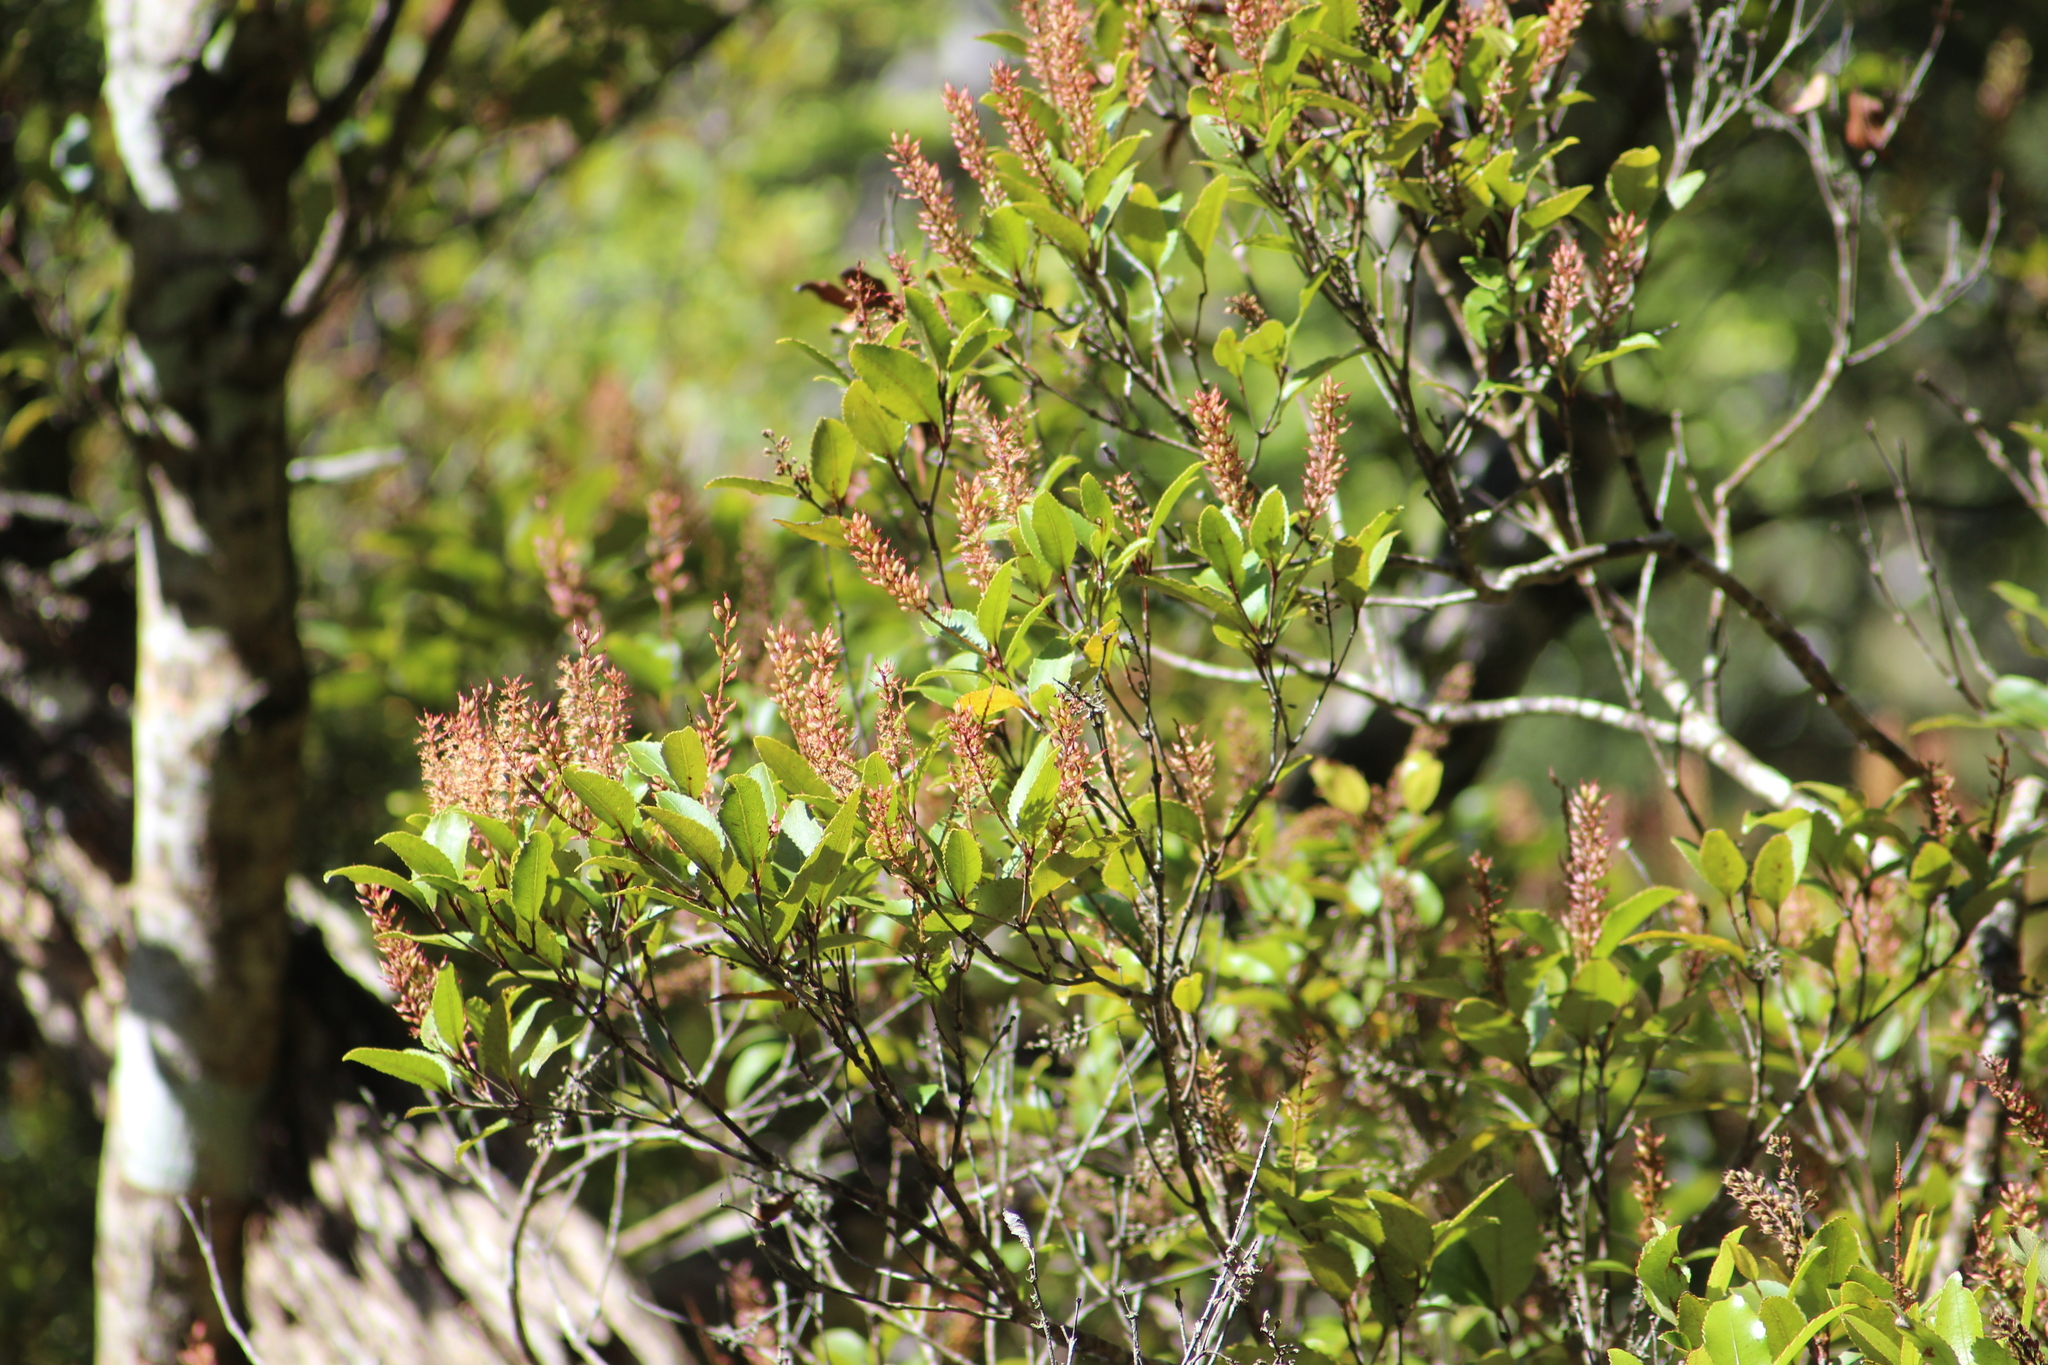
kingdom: Plantae
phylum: Tracheophyta
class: Magnoliopsida
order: Oxalidales
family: Cunoniaceae
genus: Pterophylla
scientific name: Pterophylla racemosa
